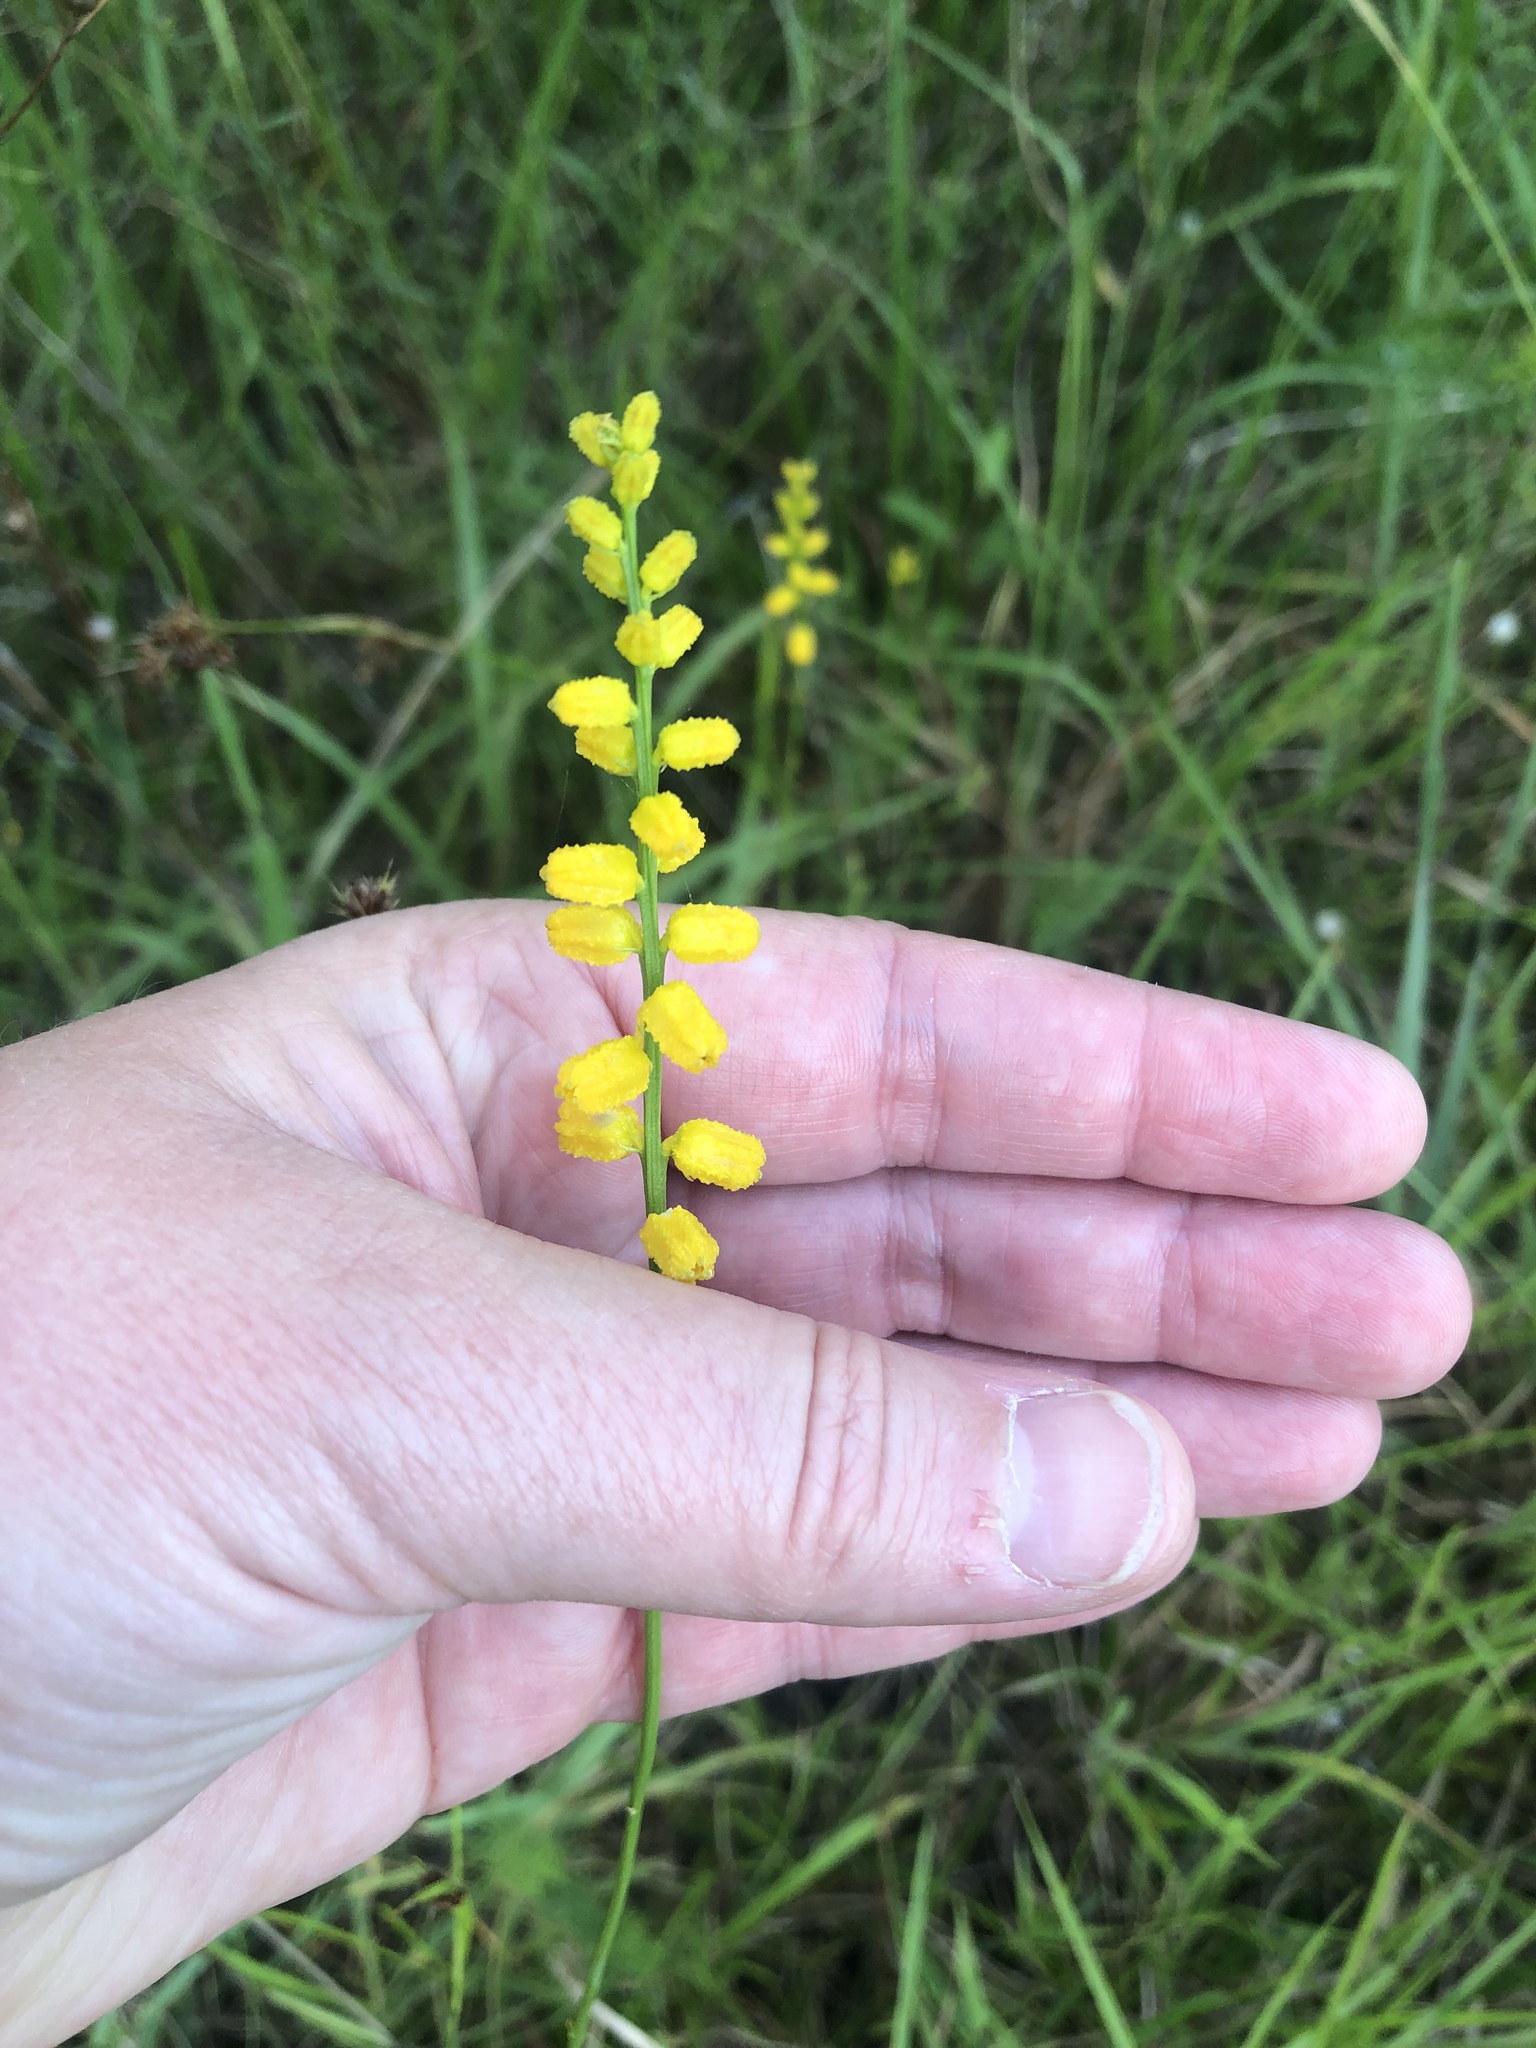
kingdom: Plantae
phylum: Tracheophyta
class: Liliopsida
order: Dioscoreales
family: Nartheciaceae
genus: Aletris
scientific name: Aletris aurea
